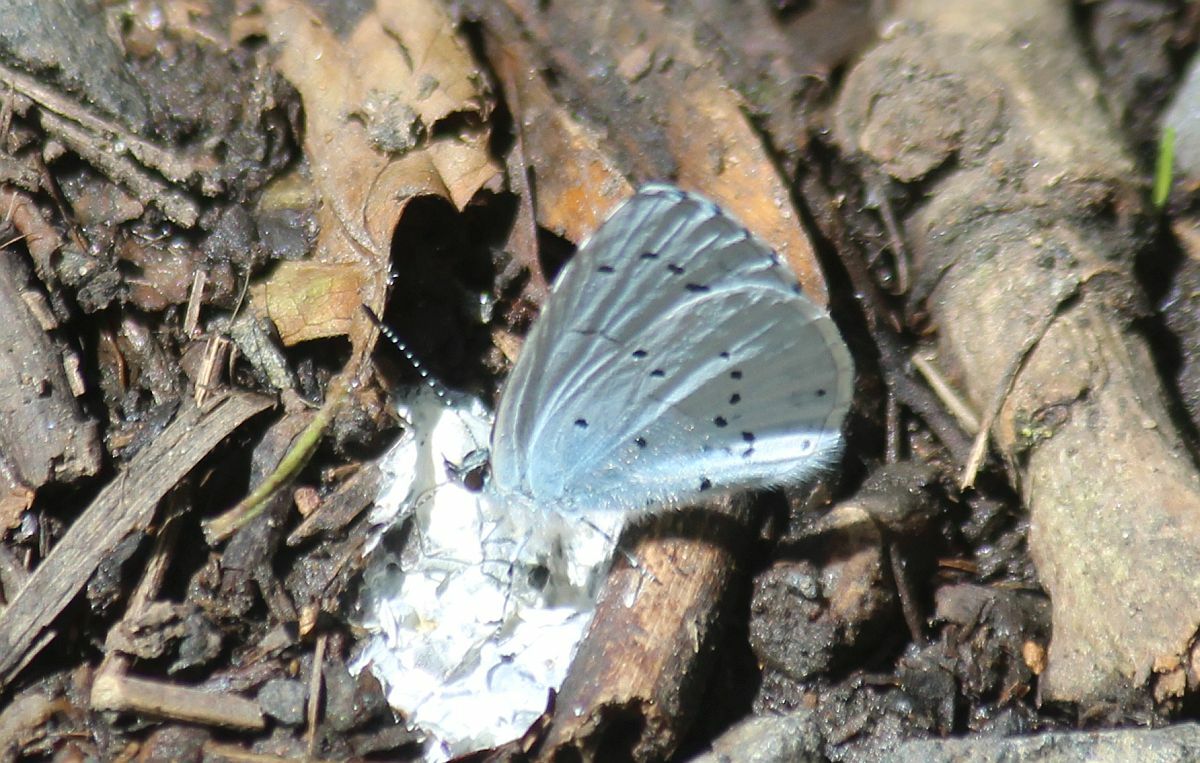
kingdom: Animalia
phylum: Arthropoda
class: Insecta
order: Lepidoptera
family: Lycaenidae
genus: Celastrina
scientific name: Celastrina argiolus
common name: Holly blue
